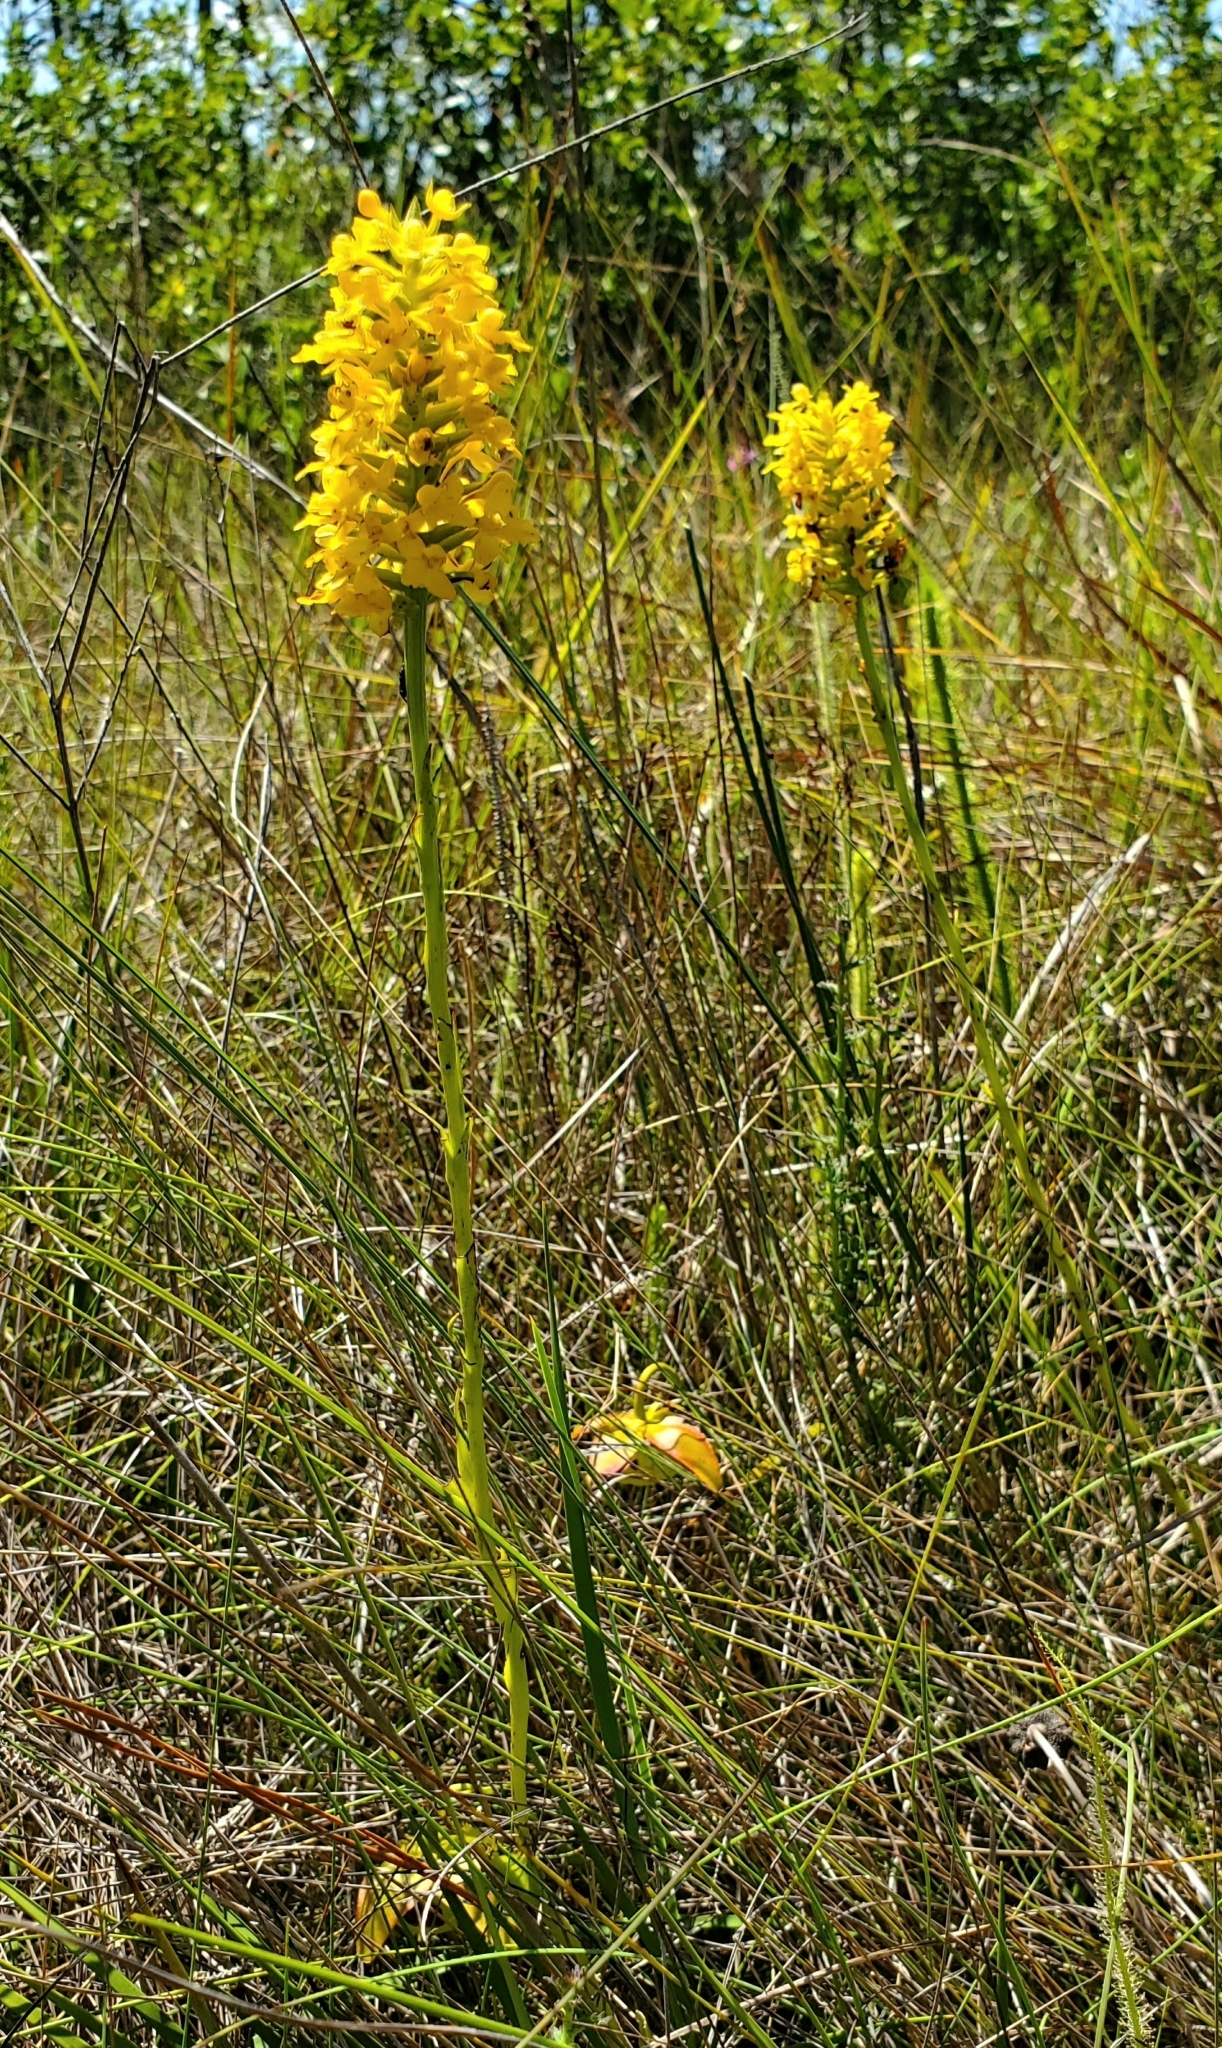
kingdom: Plantae
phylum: Tracheophyta
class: Liliopsida
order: Asparagales
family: Orchidaceae
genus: Platanthera
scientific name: Platanthera integra
